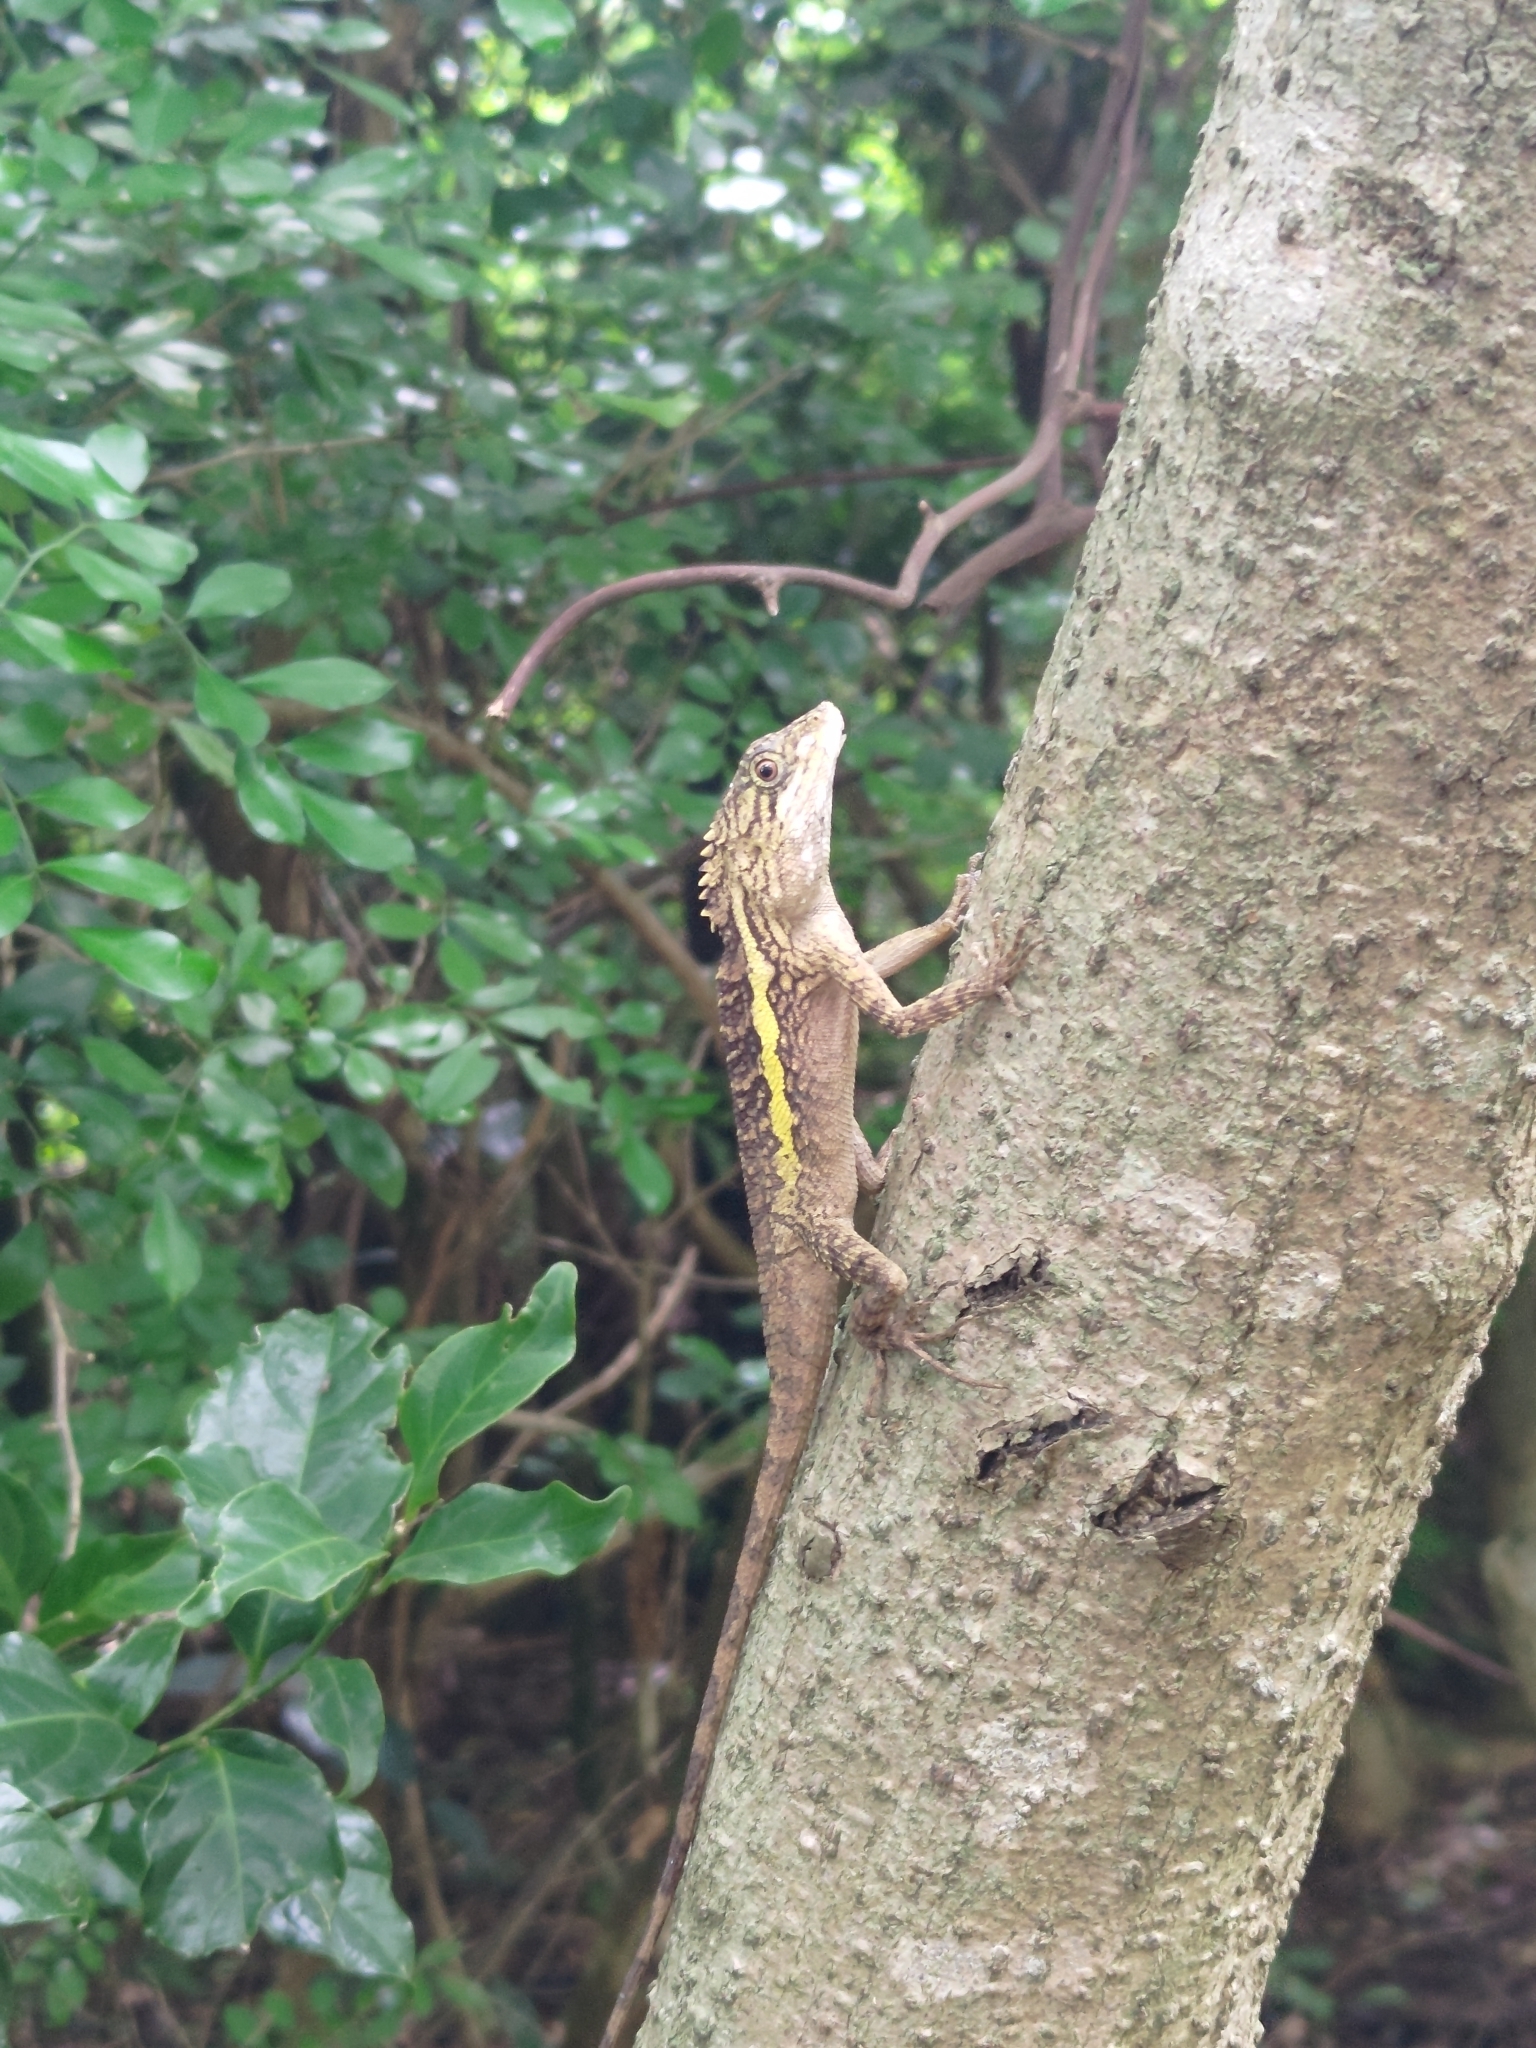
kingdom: Animalia
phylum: Chordata
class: Squamata
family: Agamidae
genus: Diploderma
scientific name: Diploderma swinhonis
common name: Taiwan japalure
